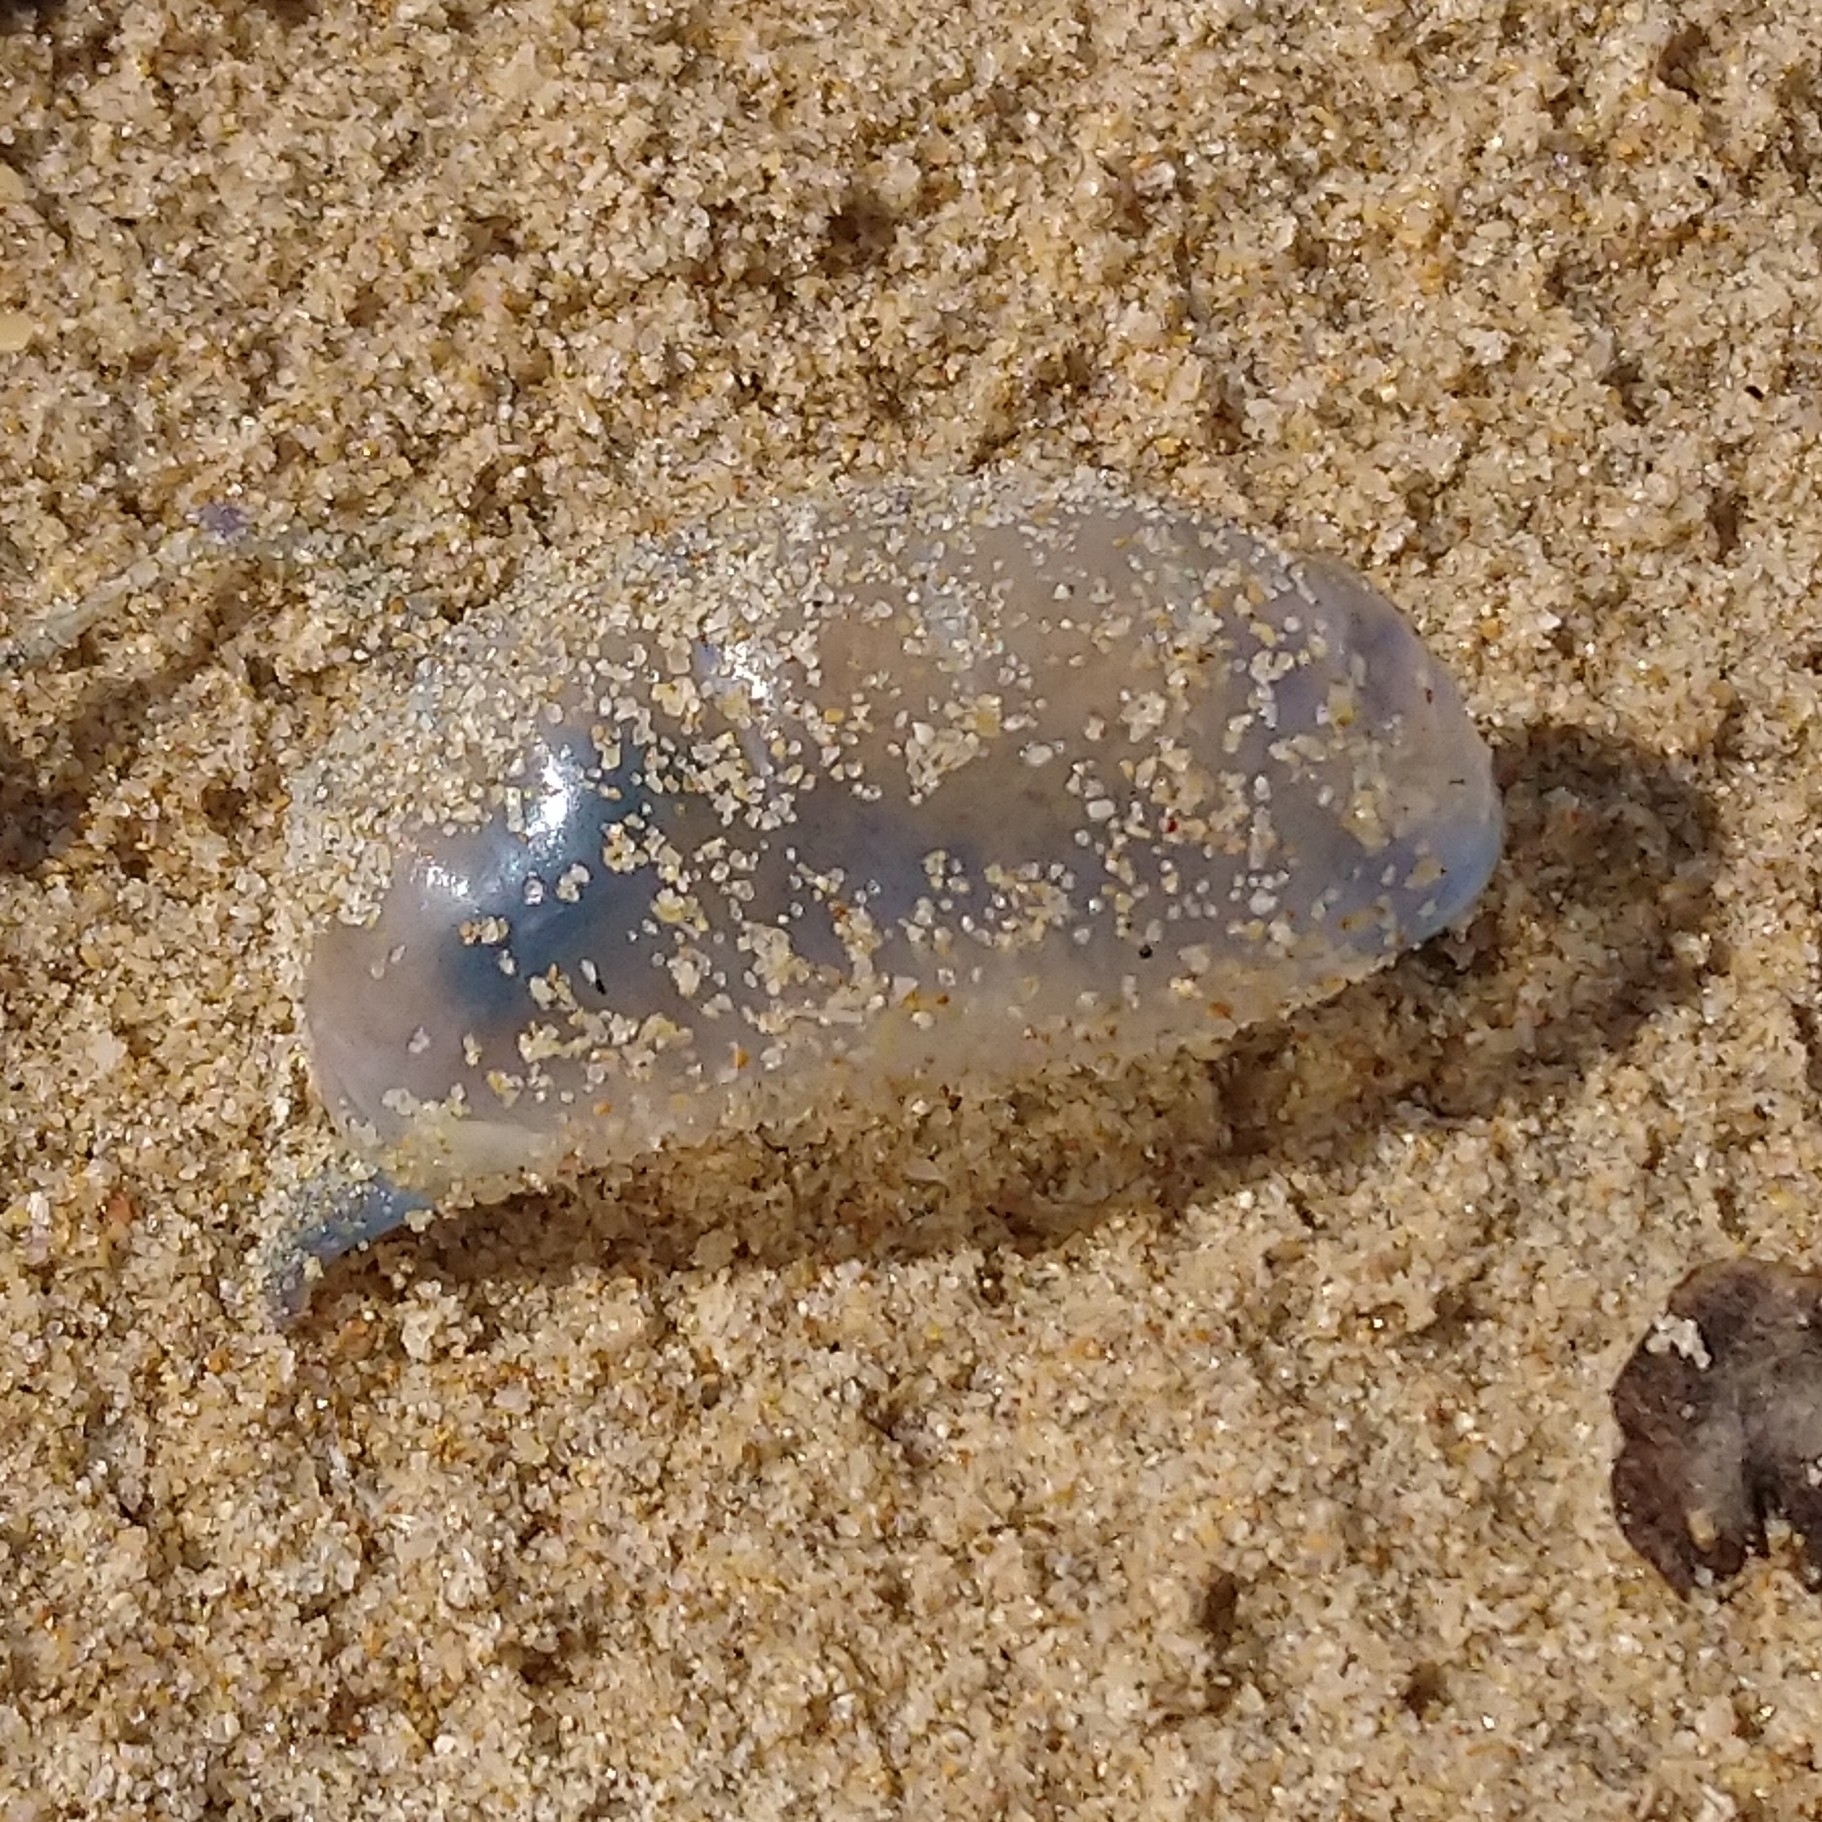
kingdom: Animalia
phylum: Cnidaria
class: Hydrozoa
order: Siphonophorae
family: Physaliidae
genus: Physalia
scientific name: Physalia physalis
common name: Portuguese man-of-war
